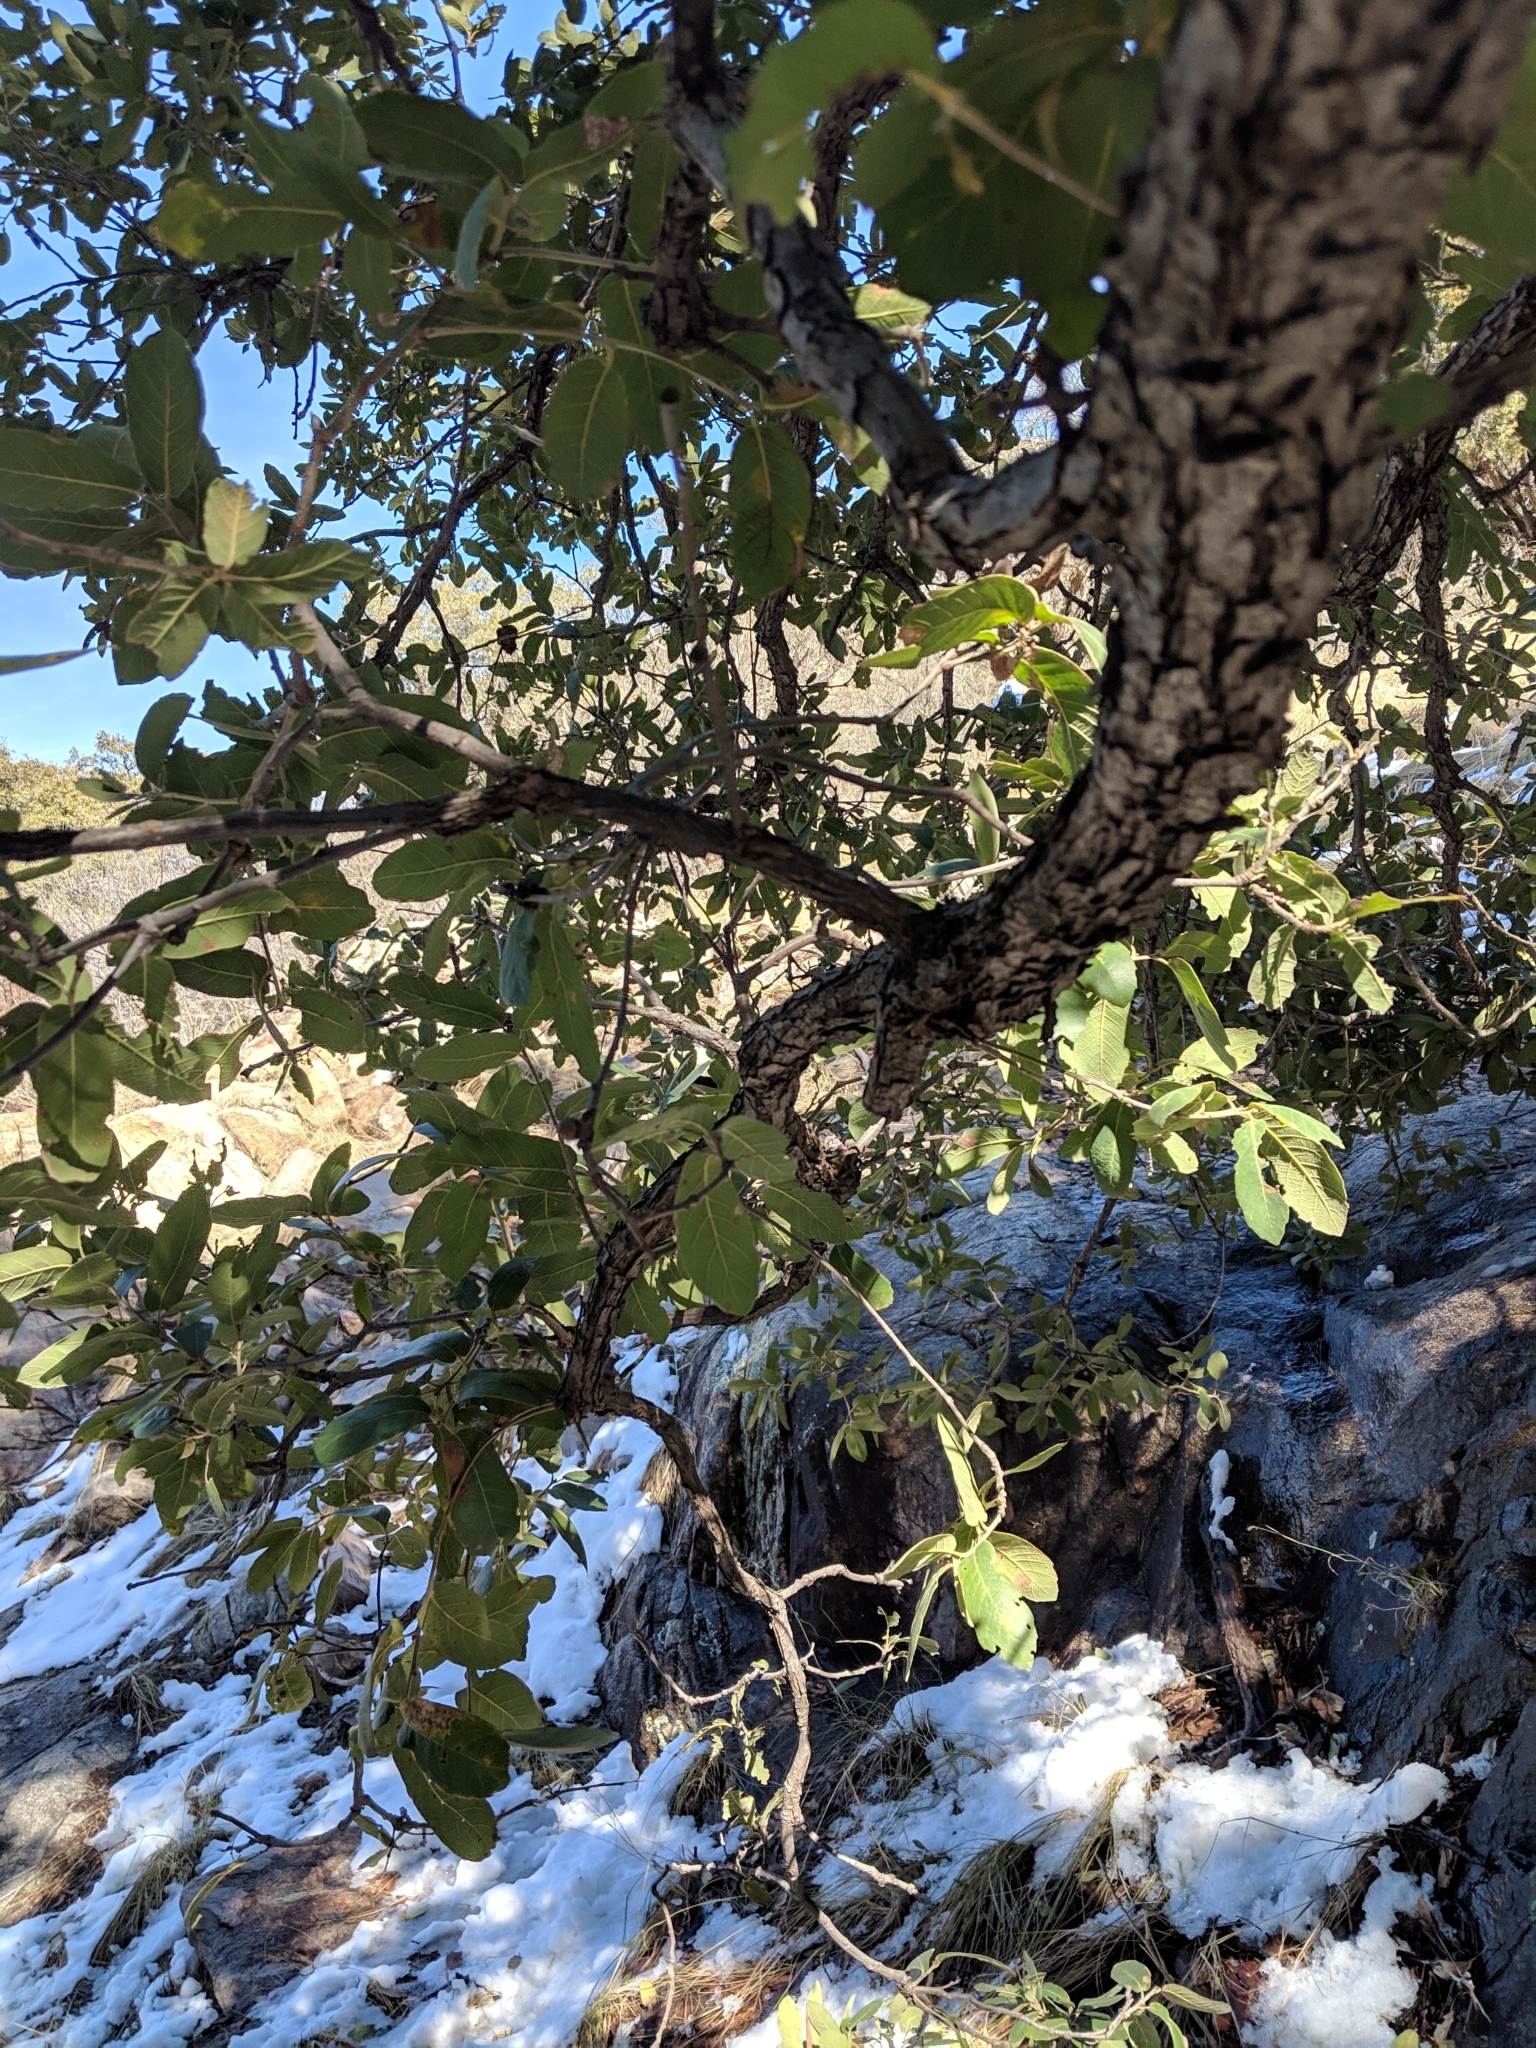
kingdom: Plantae
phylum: Tracheophyta
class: Magnoliopsida
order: Fagales
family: Fagaceae
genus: Quercus
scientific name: Quercus arizonica
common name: Arizona white oak
